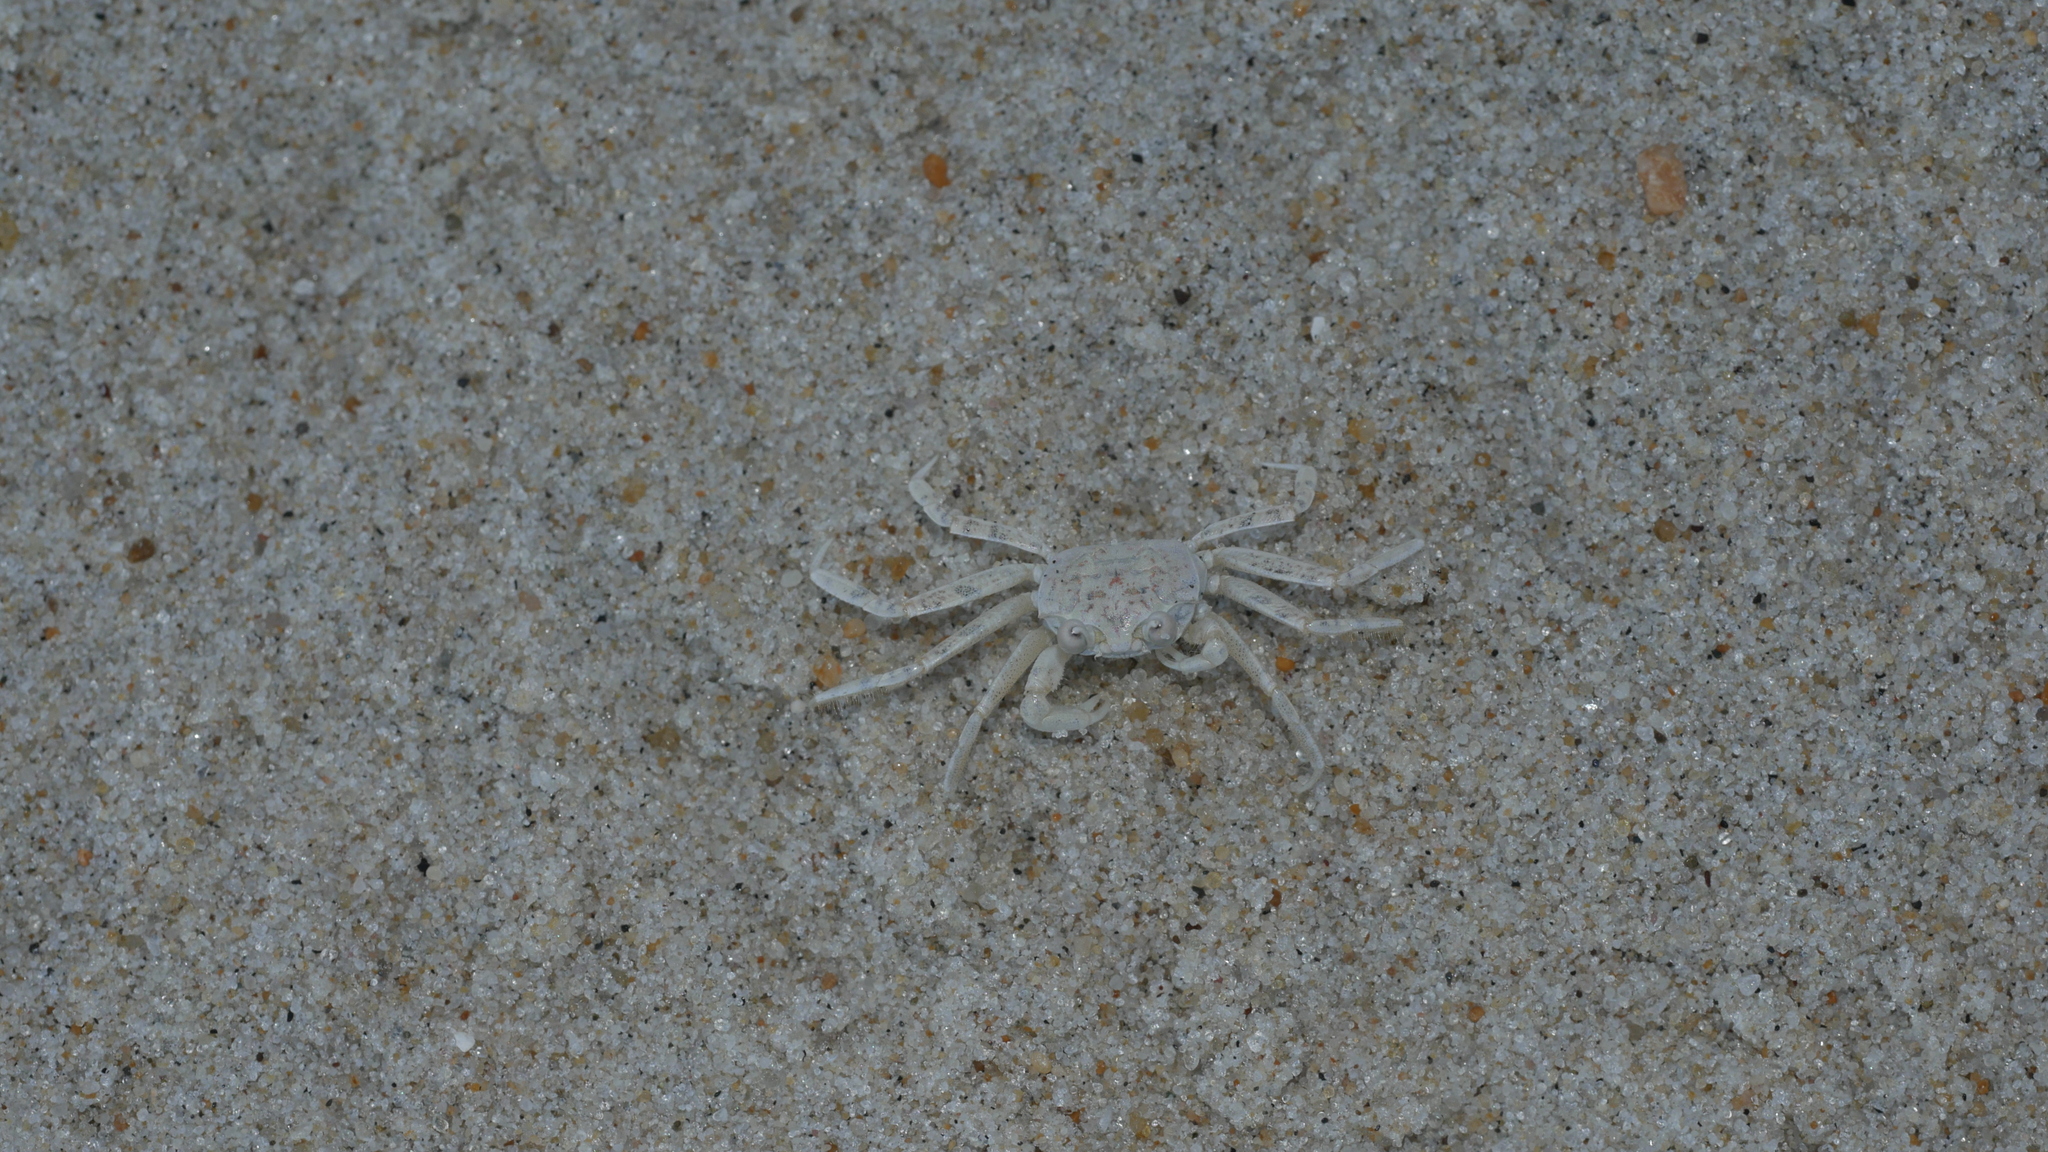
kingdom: Animalia
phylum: Arthropoda
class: Malacostraca
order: Decapoda
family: Ocypodidae
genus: Ocypode
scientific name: Ocypode quadrata
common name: Ghost crab
